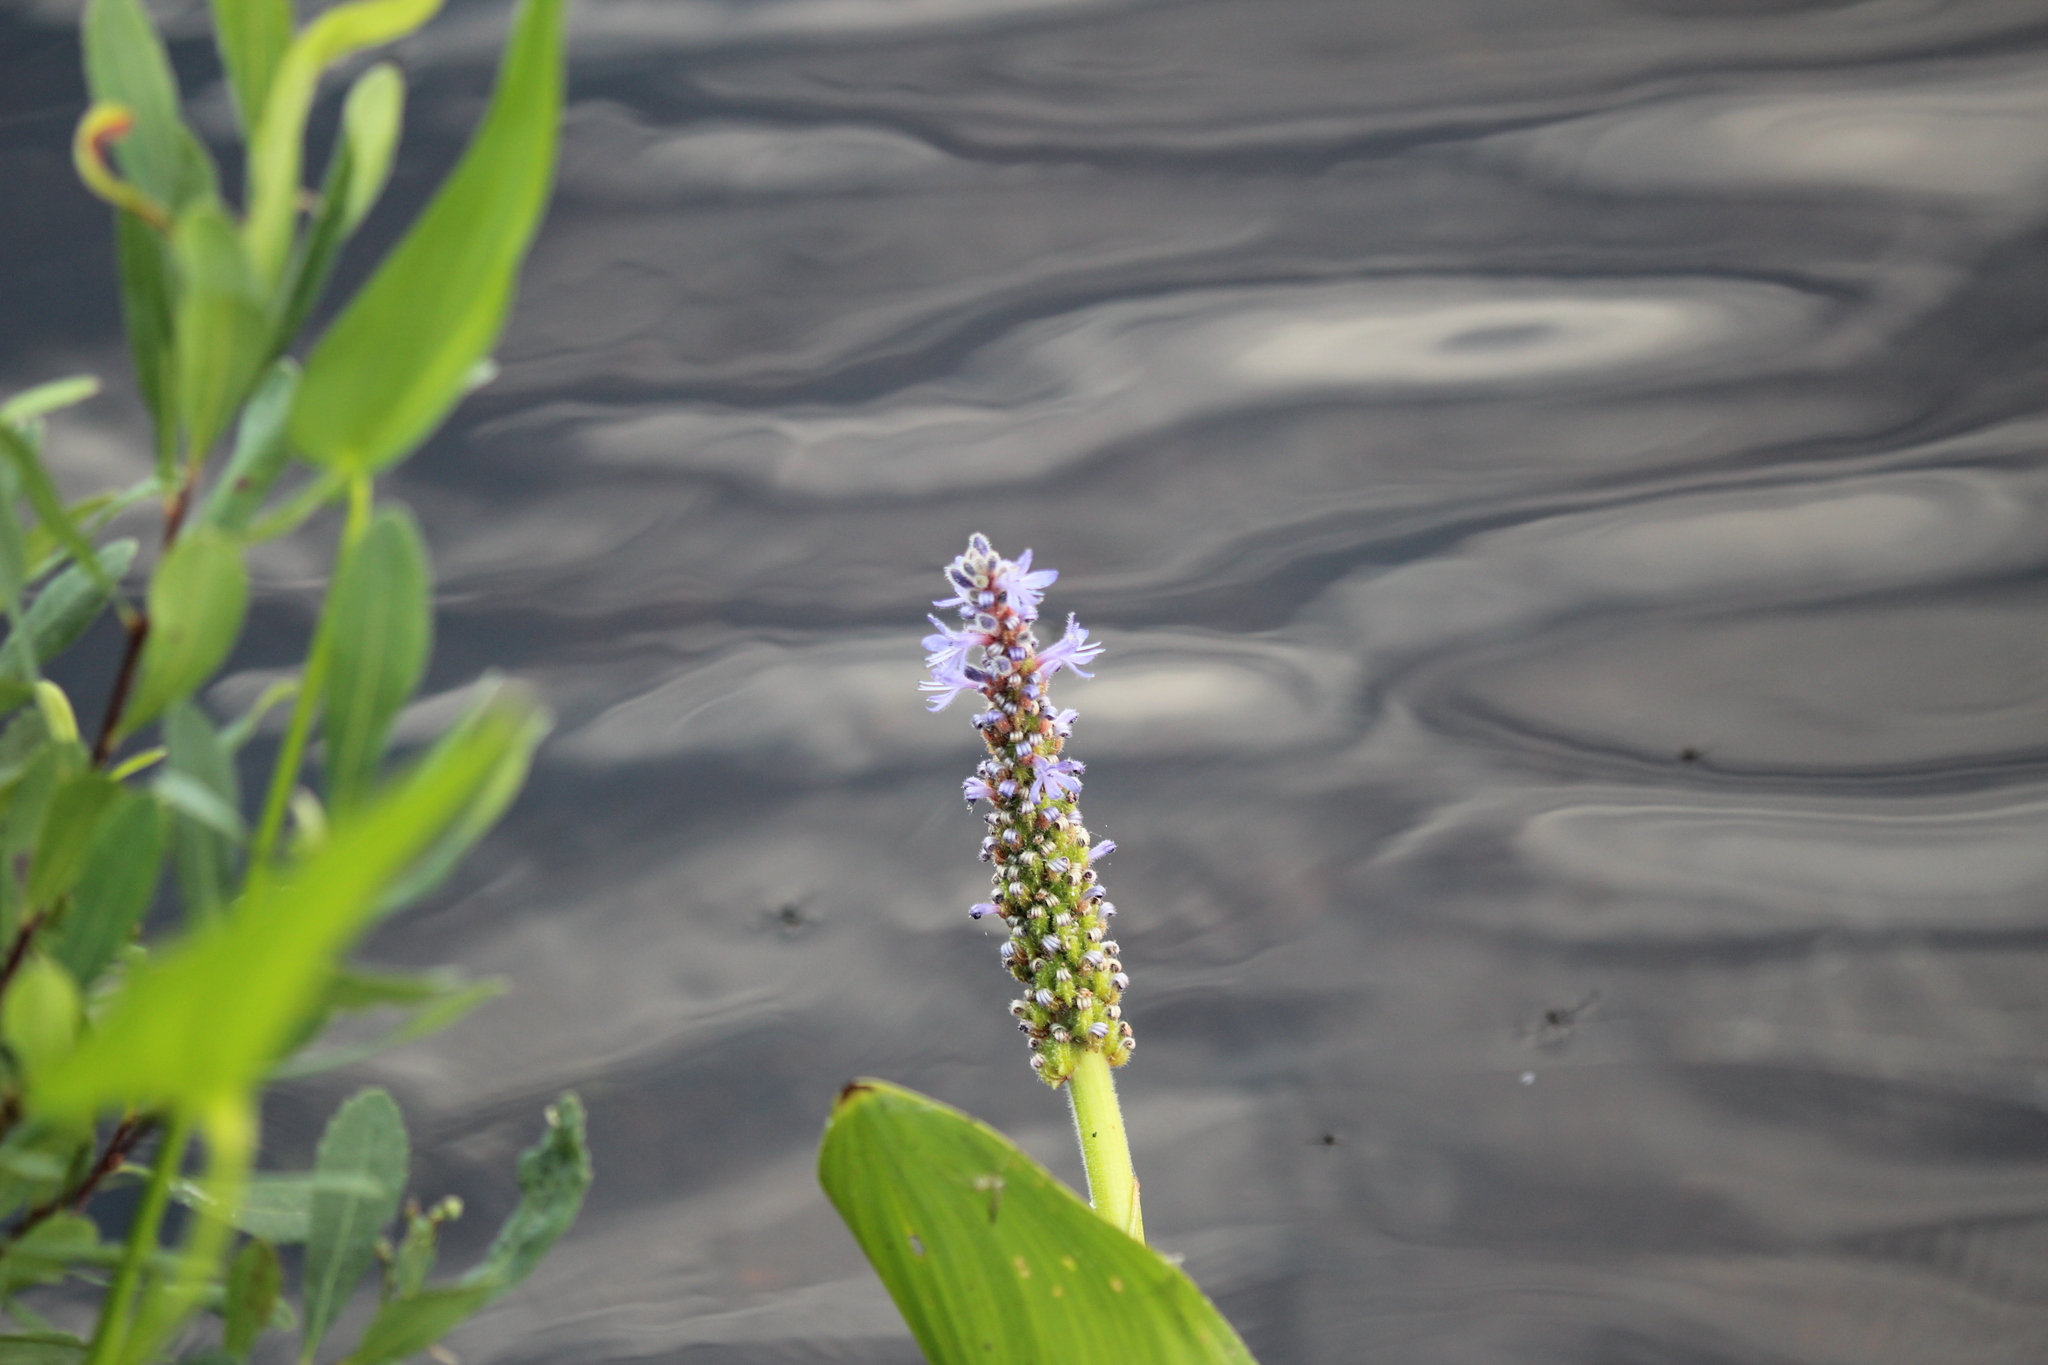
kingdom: Plantae
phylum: Tracheophyta
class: Liliopsida
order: Commelinales
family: Pontederiaceae
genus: Pontederia
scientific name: Pontederia cordata
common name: Pickerelweed
